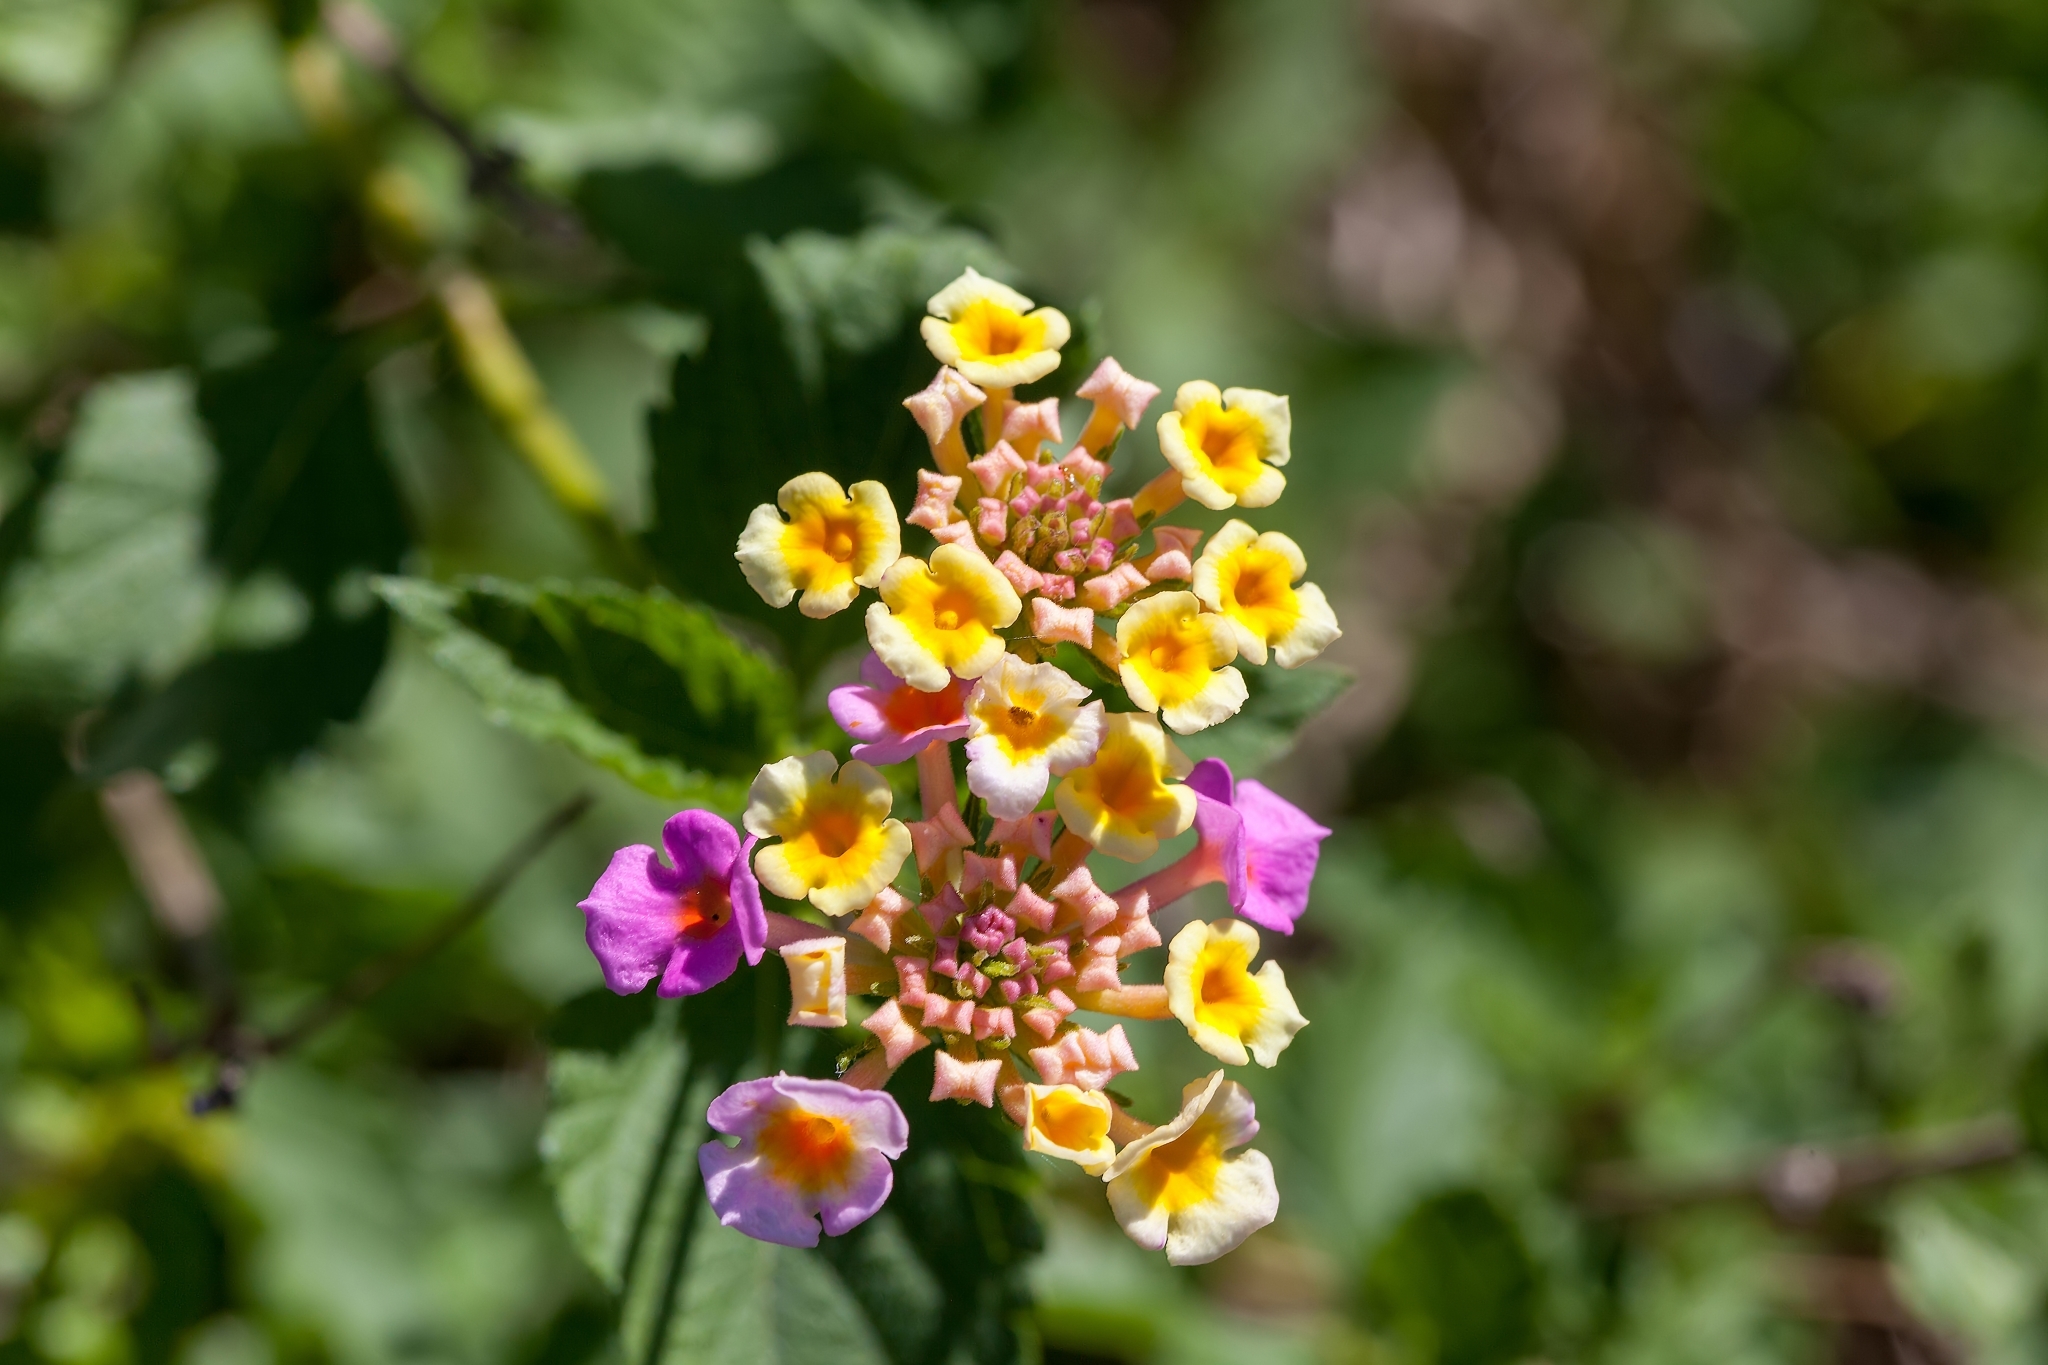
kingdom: Plantae
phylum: Tracheophyta
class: Magnoliopsida
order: Lamiales
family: Verbenaceae
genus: Lantana
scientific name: Lantana strigocamara
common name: Lantana
